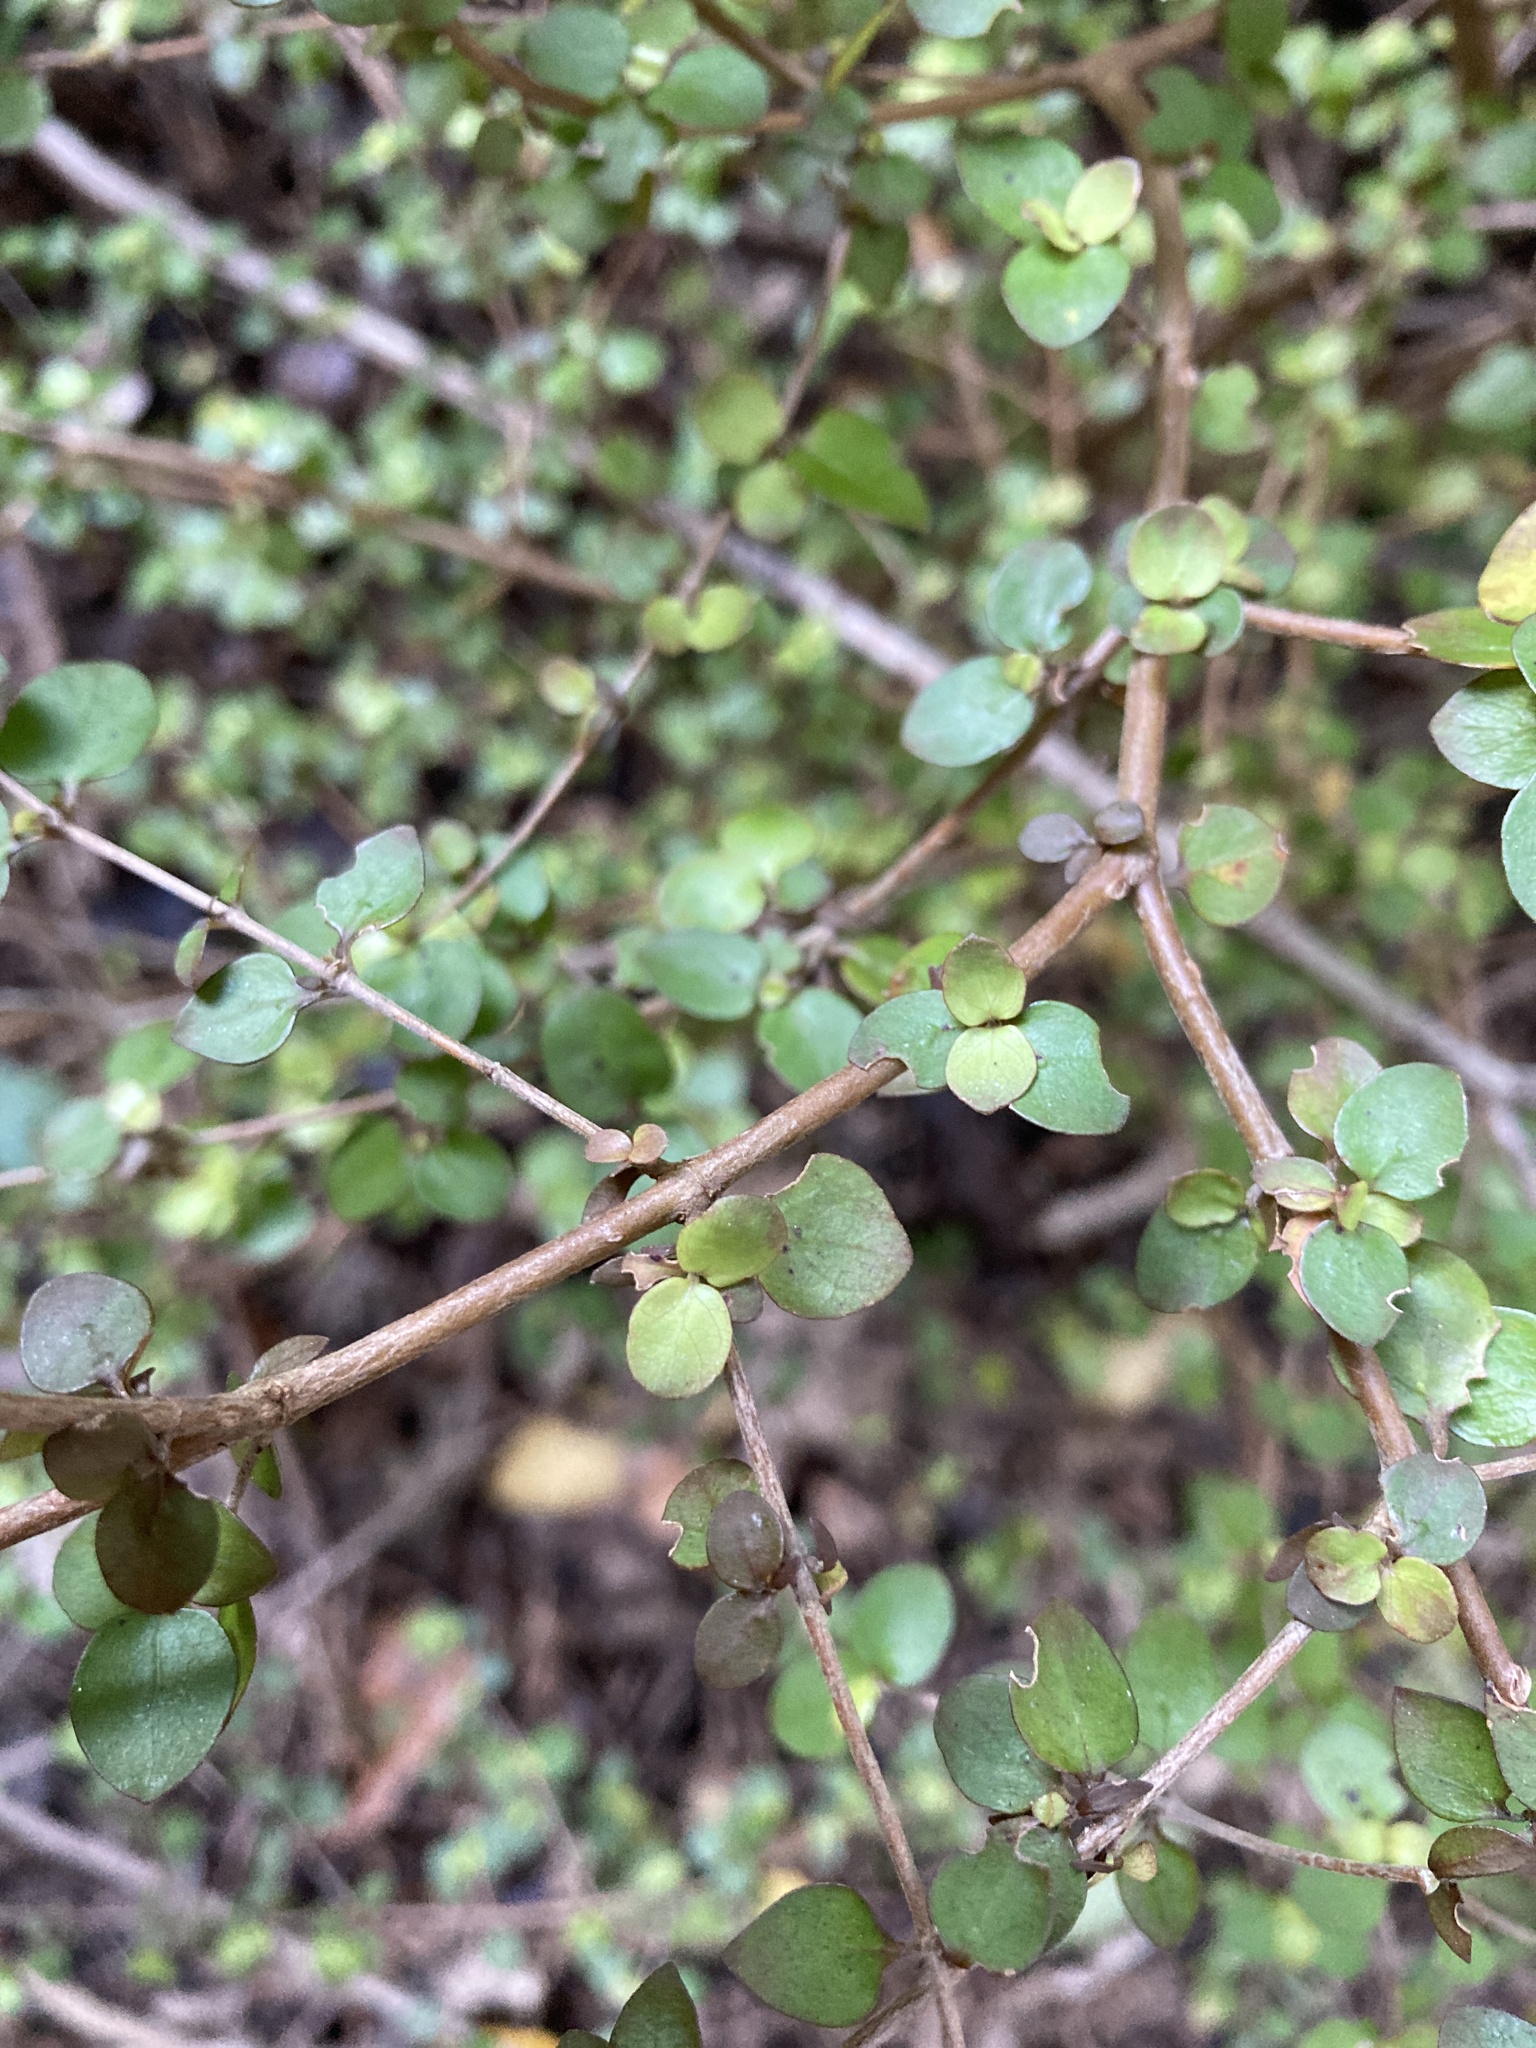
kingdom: Plantae
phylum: Tracheophyta
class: Magnoliopsida
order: Gentianales
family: Rubiaceae
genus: Coprosma
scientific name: Coprosma rhamnoides
